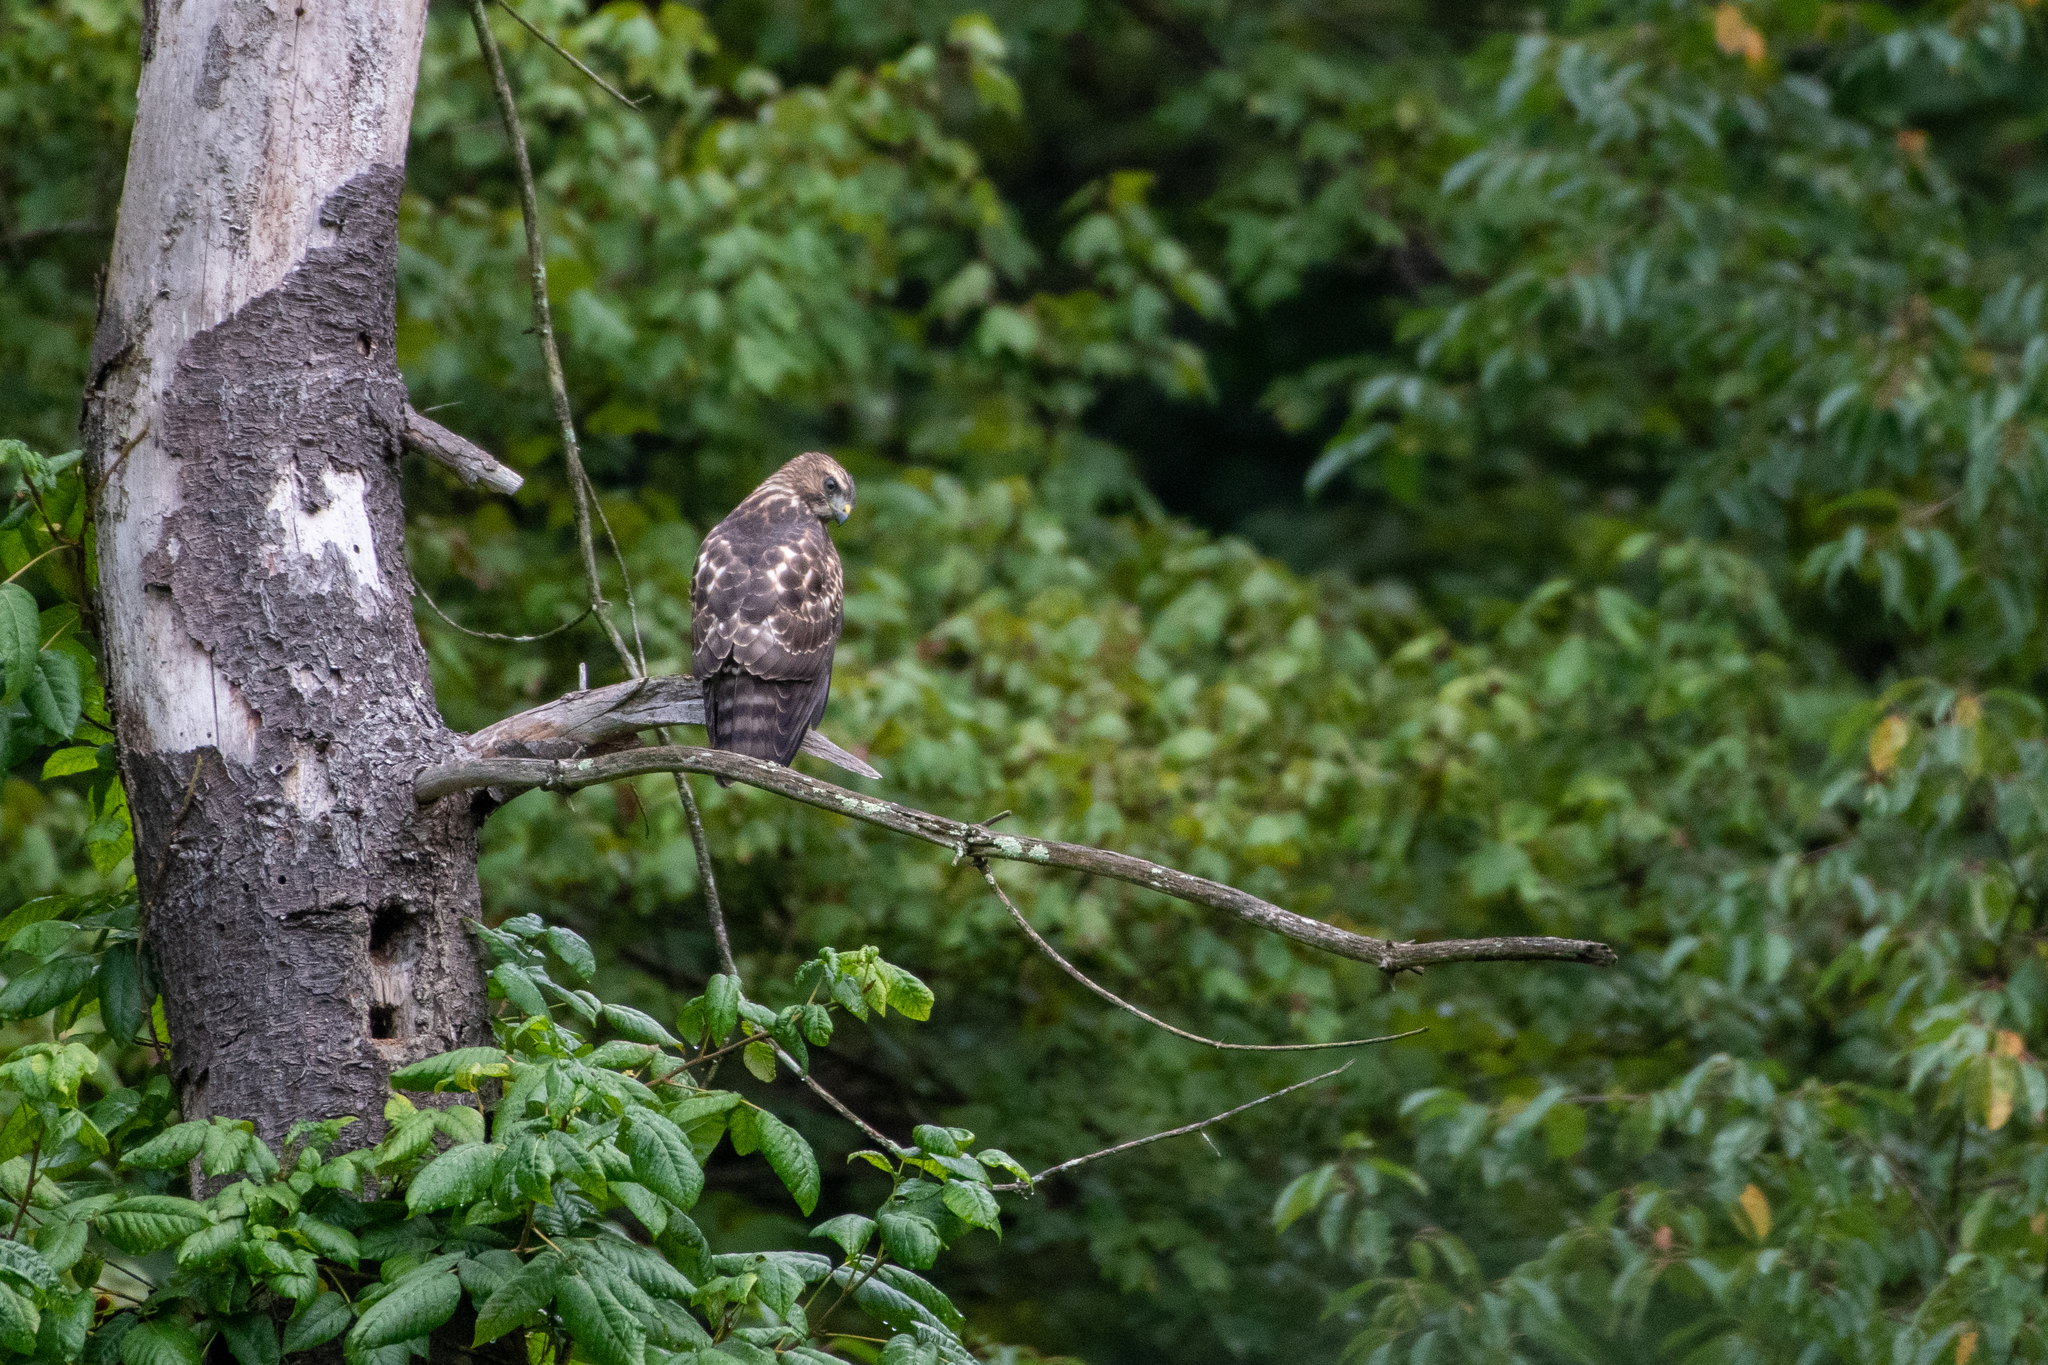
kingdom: Animalia
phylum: Chordata
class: Aves
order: Accipitriformes
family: Accipitridae
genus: Buteo
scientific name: Buteo platypterus
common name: Broad-winged hawk
